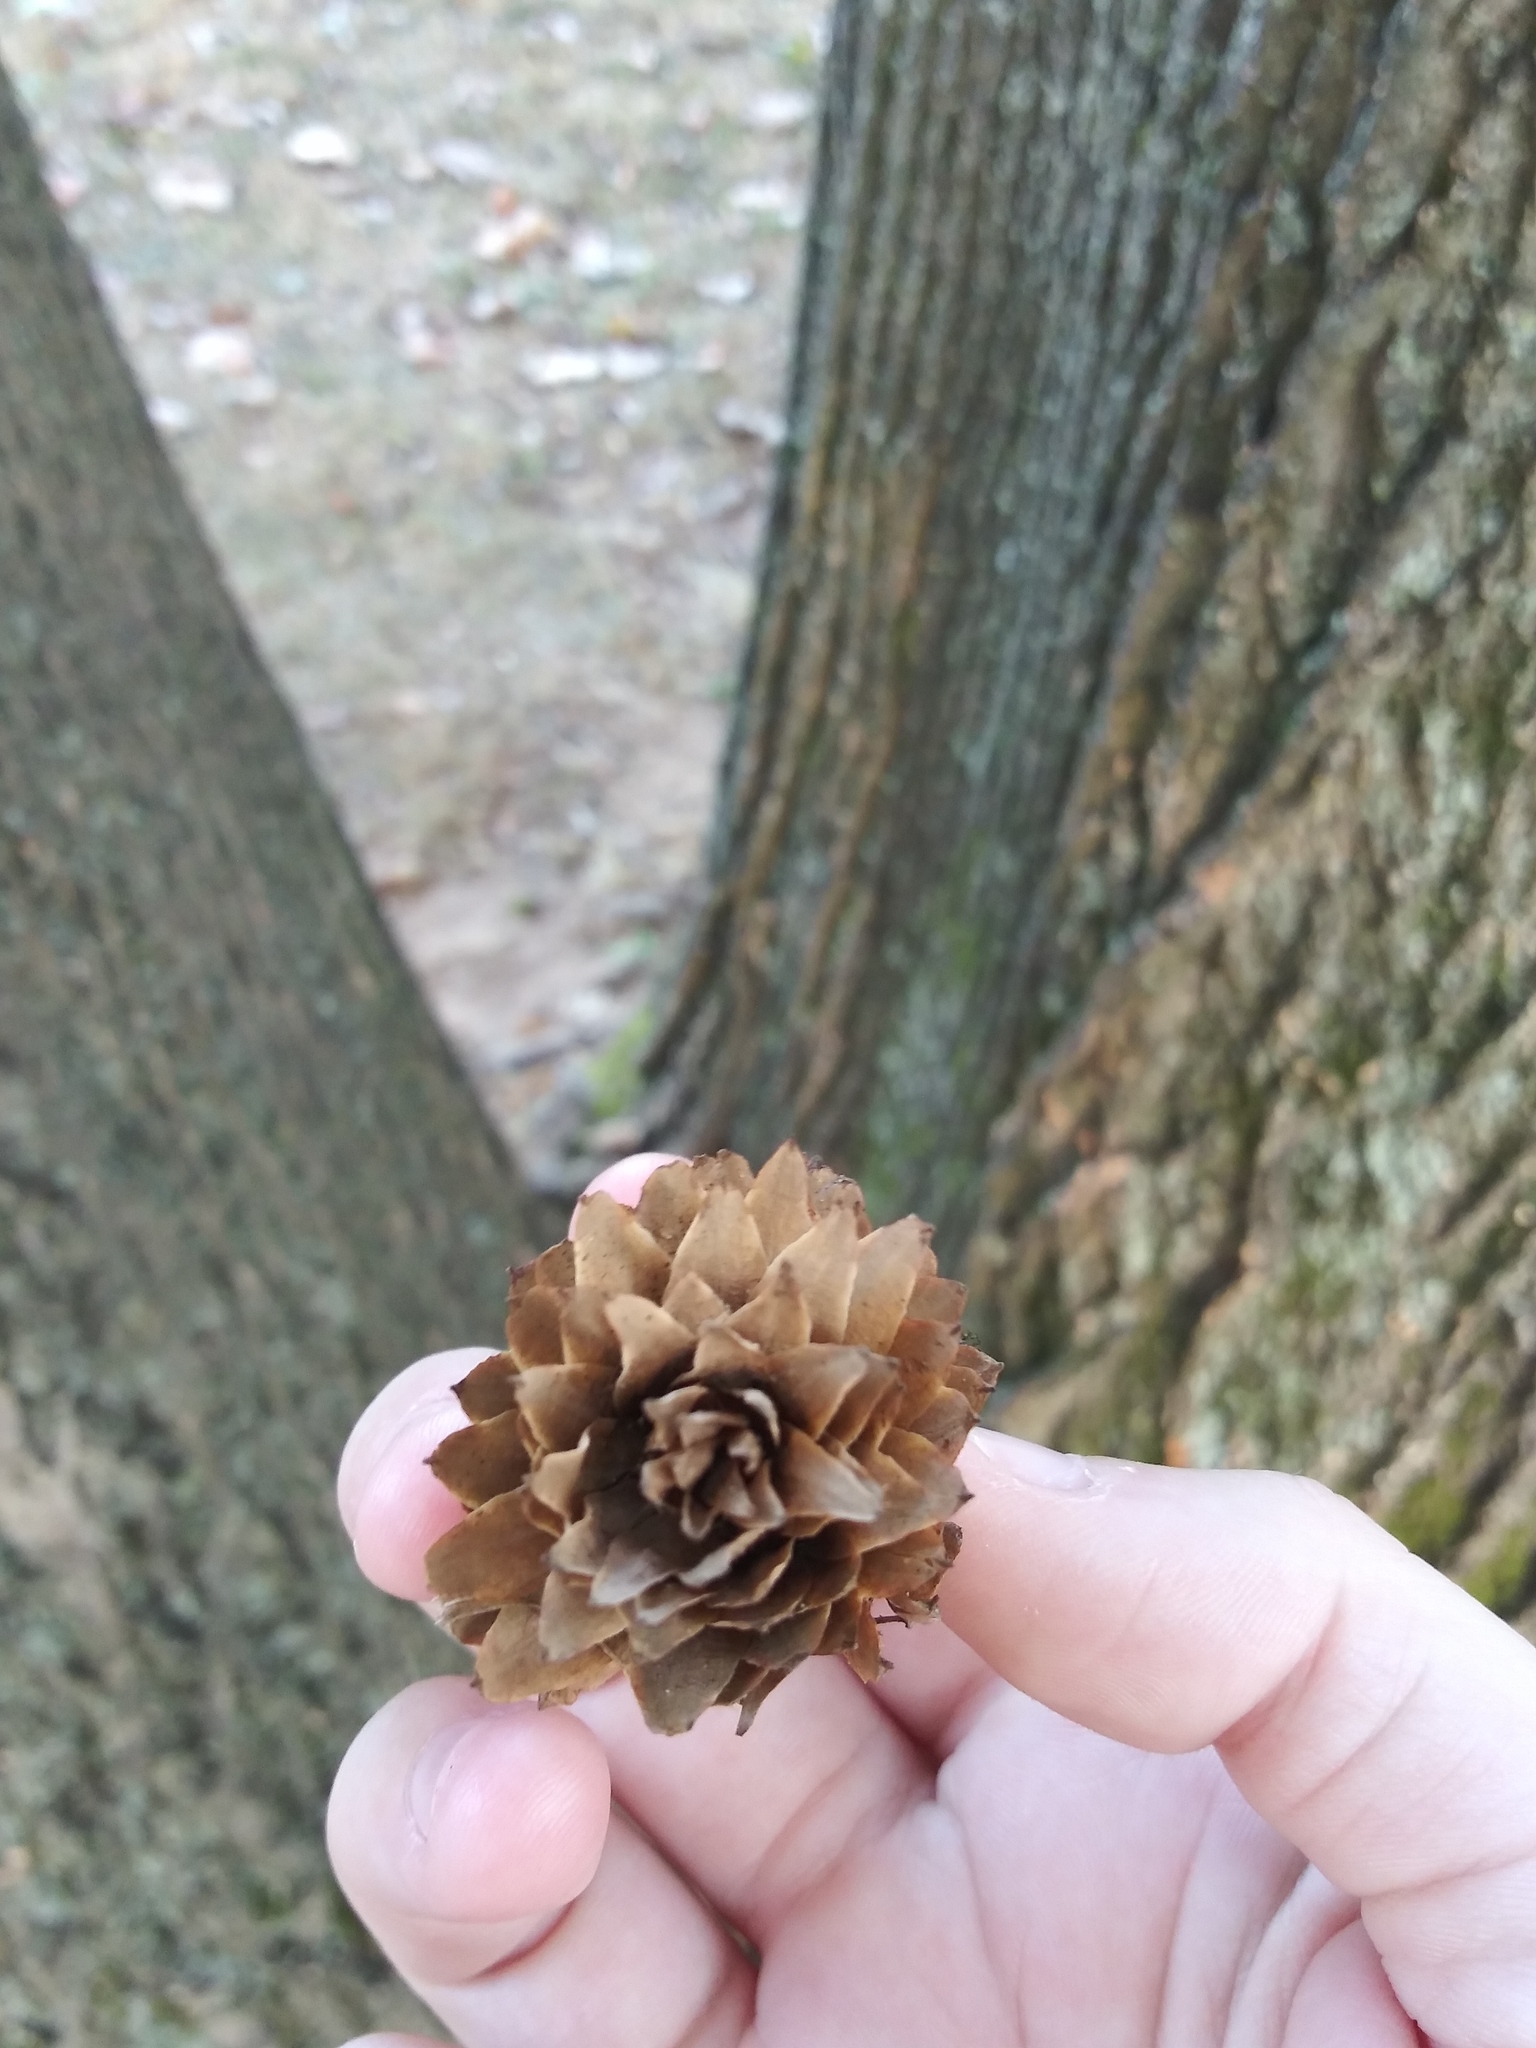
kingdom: Plantae
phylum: Tracheophyta
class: Magnoliopsida
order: Magnoliales
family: Magnoliaceae
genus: Liriodendron
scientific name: Liriodendron tulipifera
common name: Tulip tree
